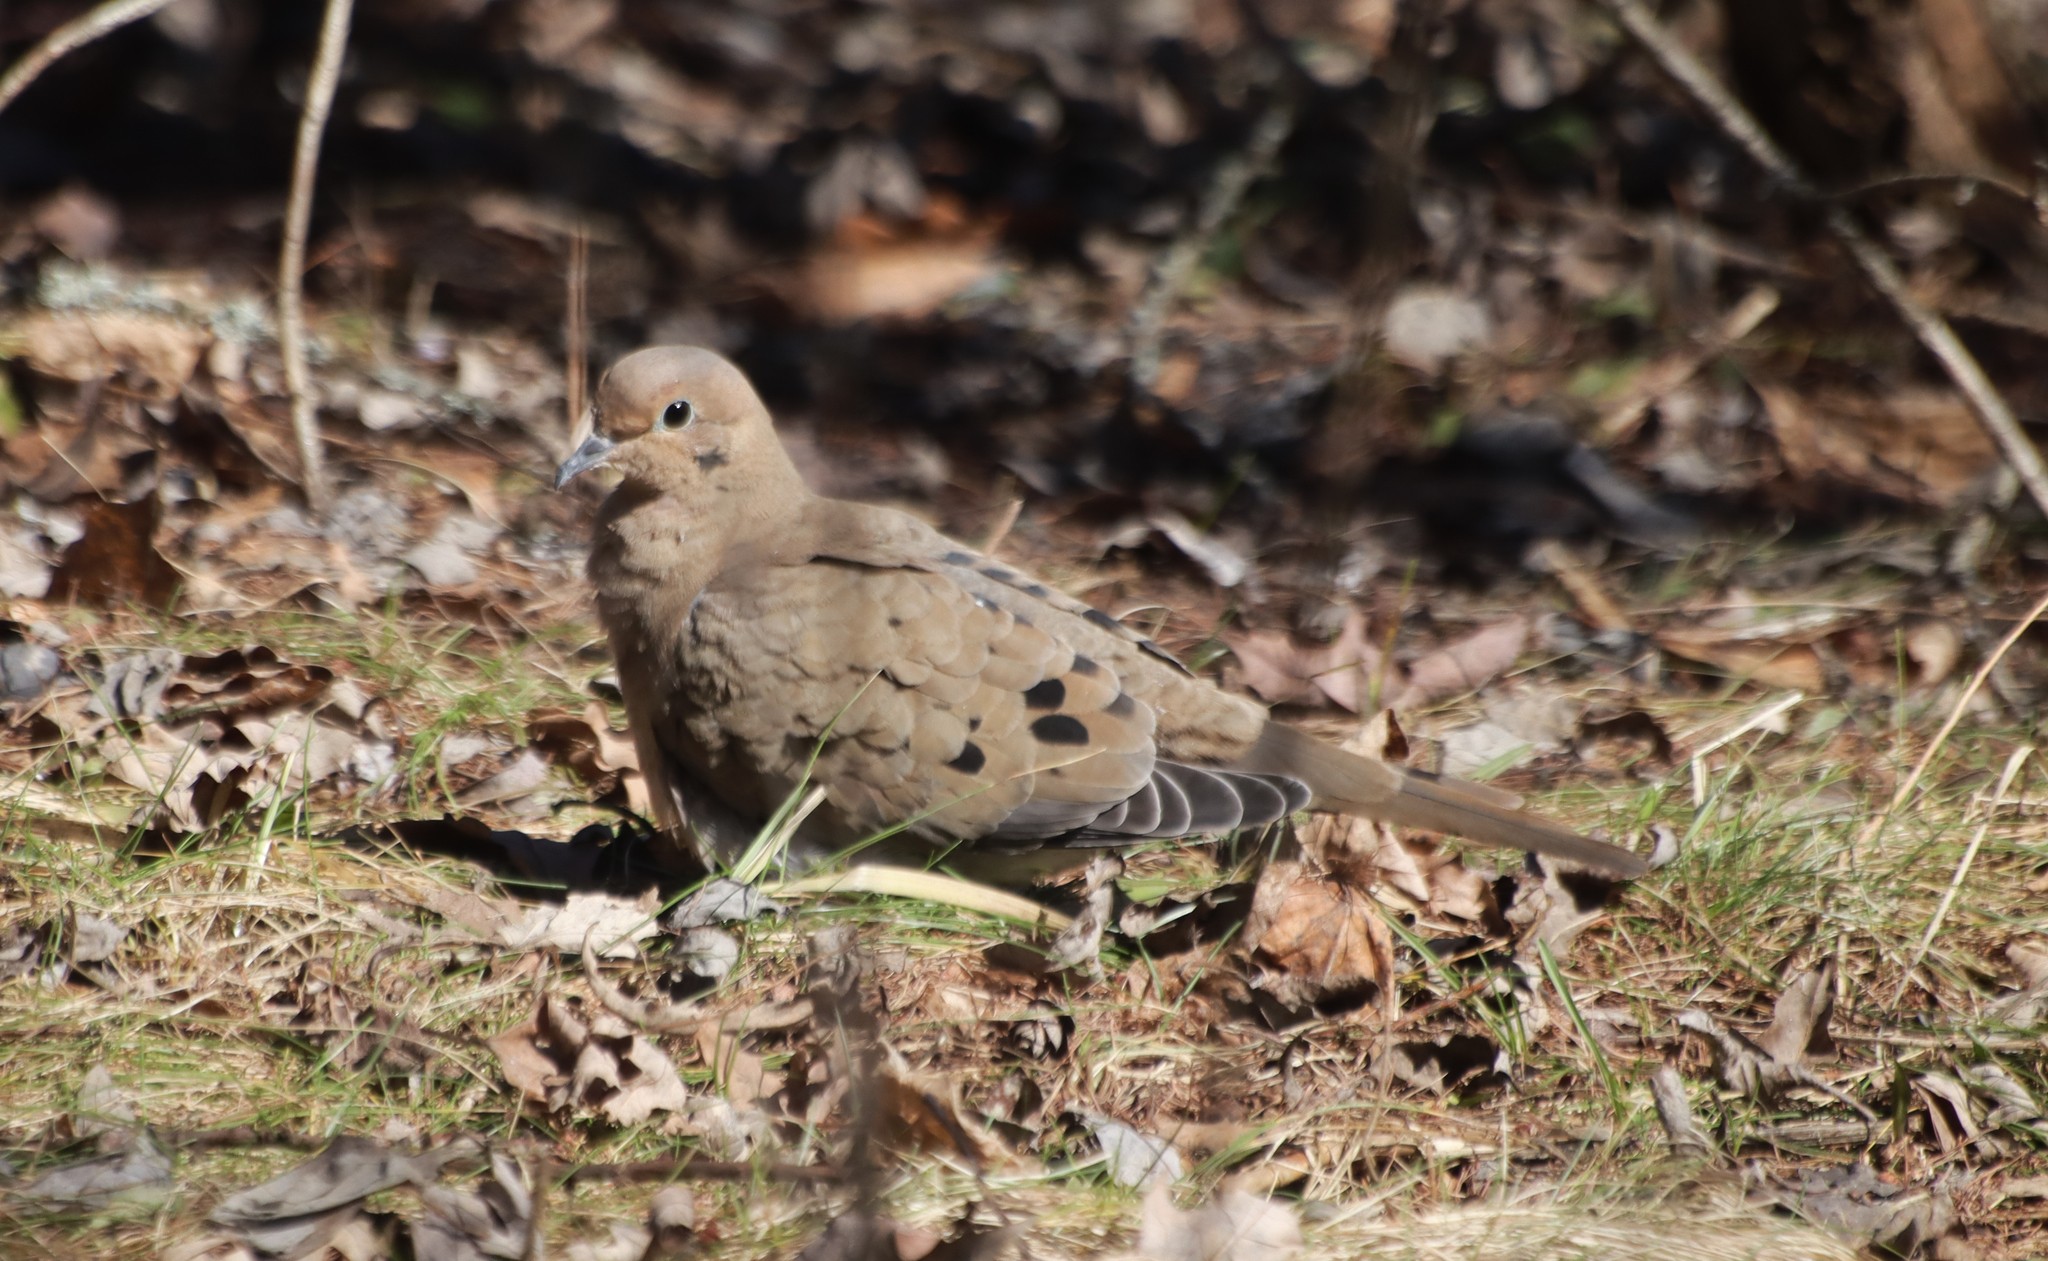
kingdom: Animalia
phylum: Chordata
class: Aves
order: Columbiformes
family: Columbidae
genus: Zenaida
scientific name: Zenaida macroura
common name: Mourning dove
